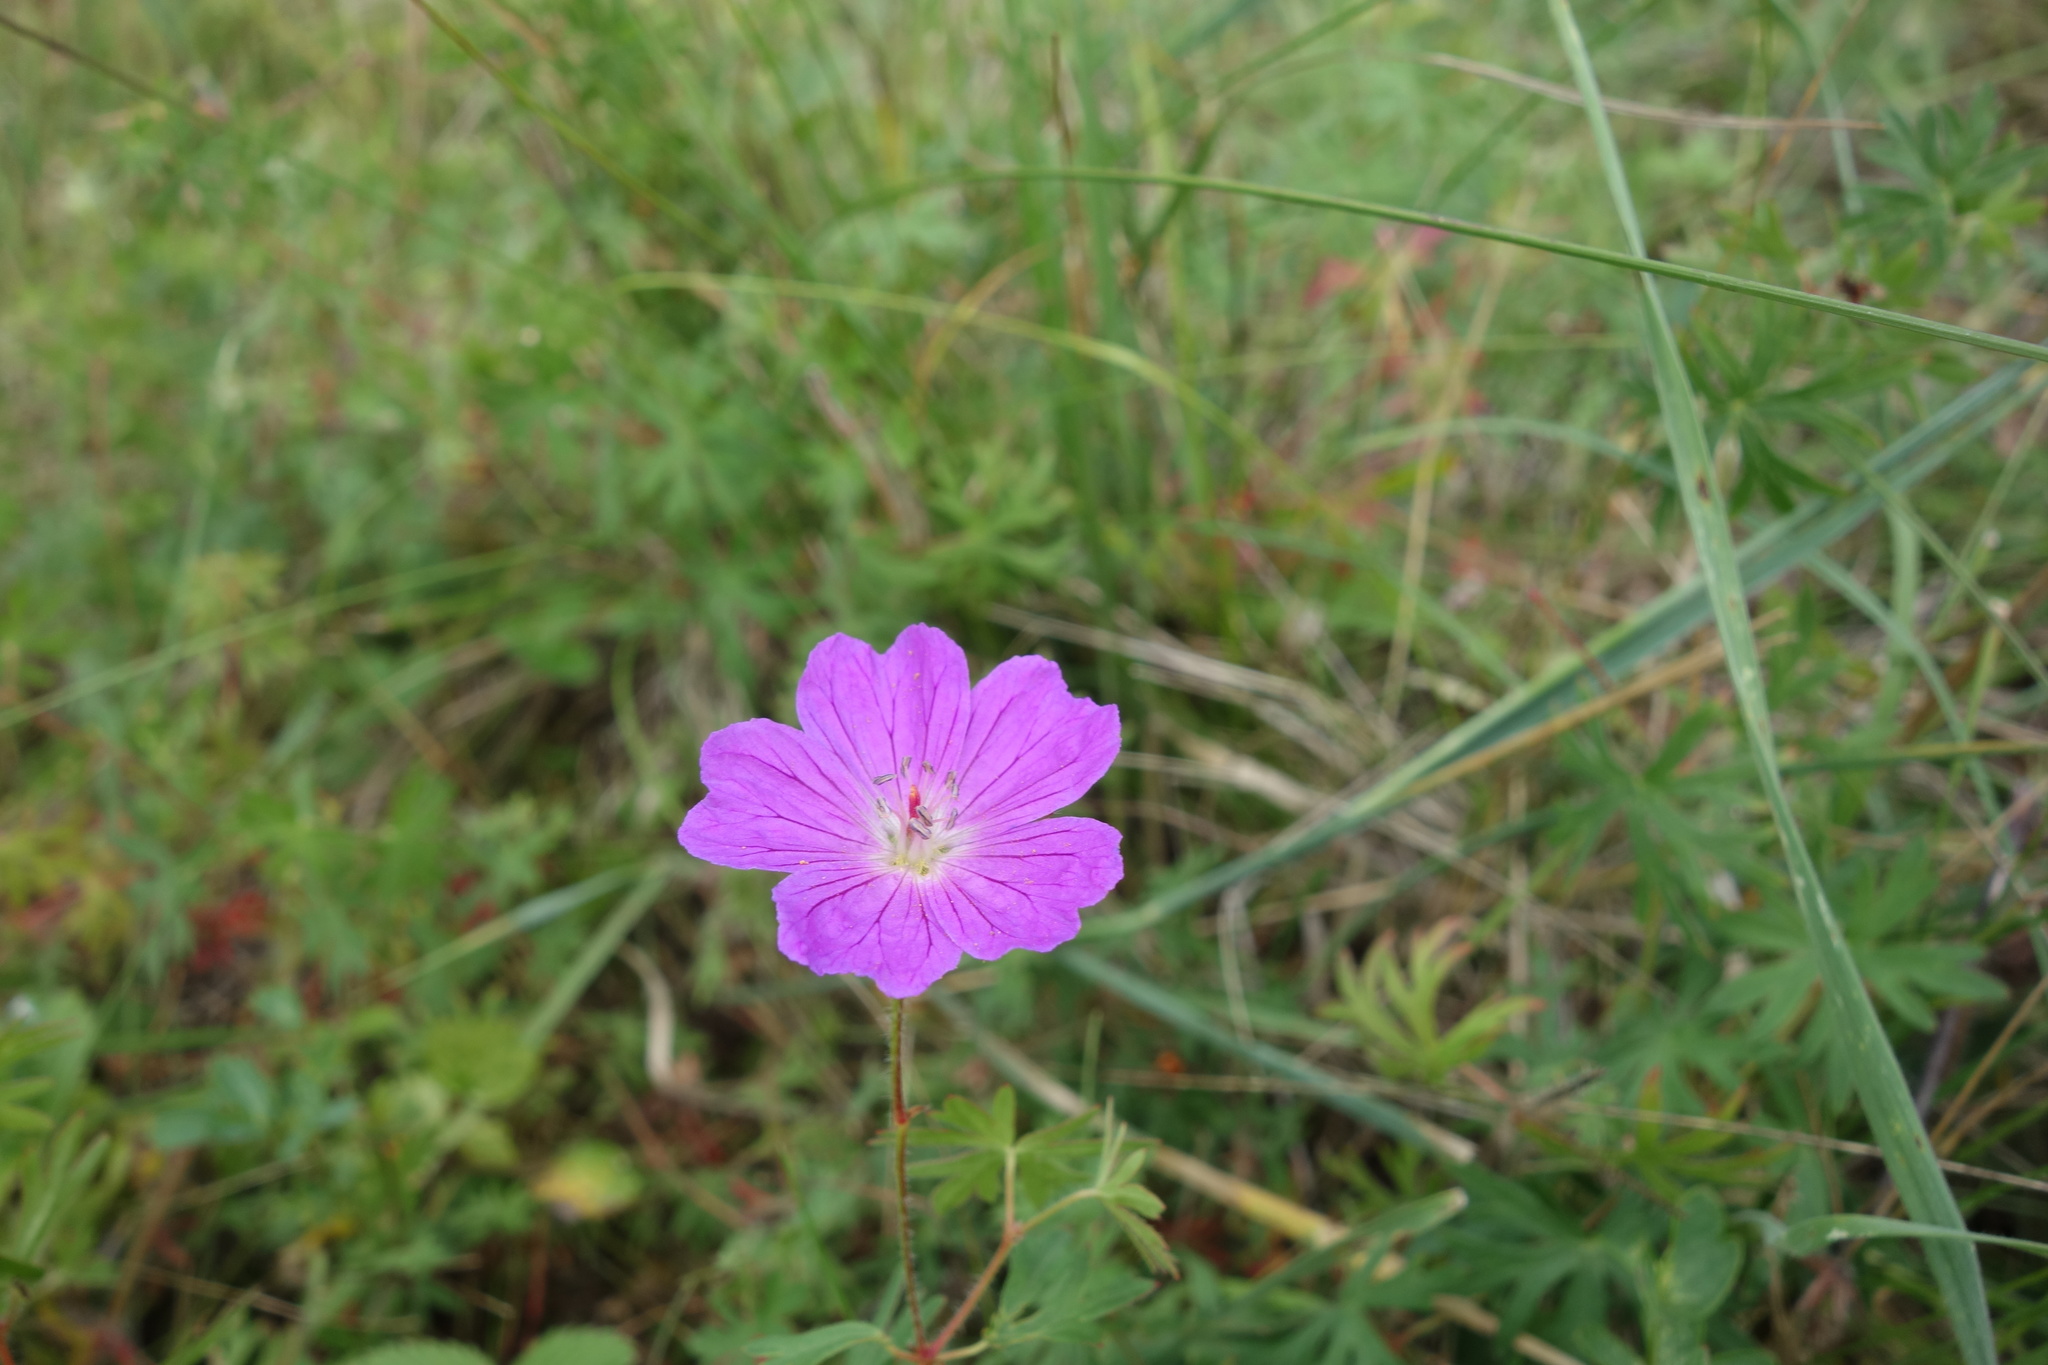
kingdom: Plantae
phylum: Tracheophyta
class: Magnoliopsida
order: Geraniales
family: Geraniaceae
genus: Geranium
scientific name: Geranium sanguineum
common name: Bloody crane's-bill
